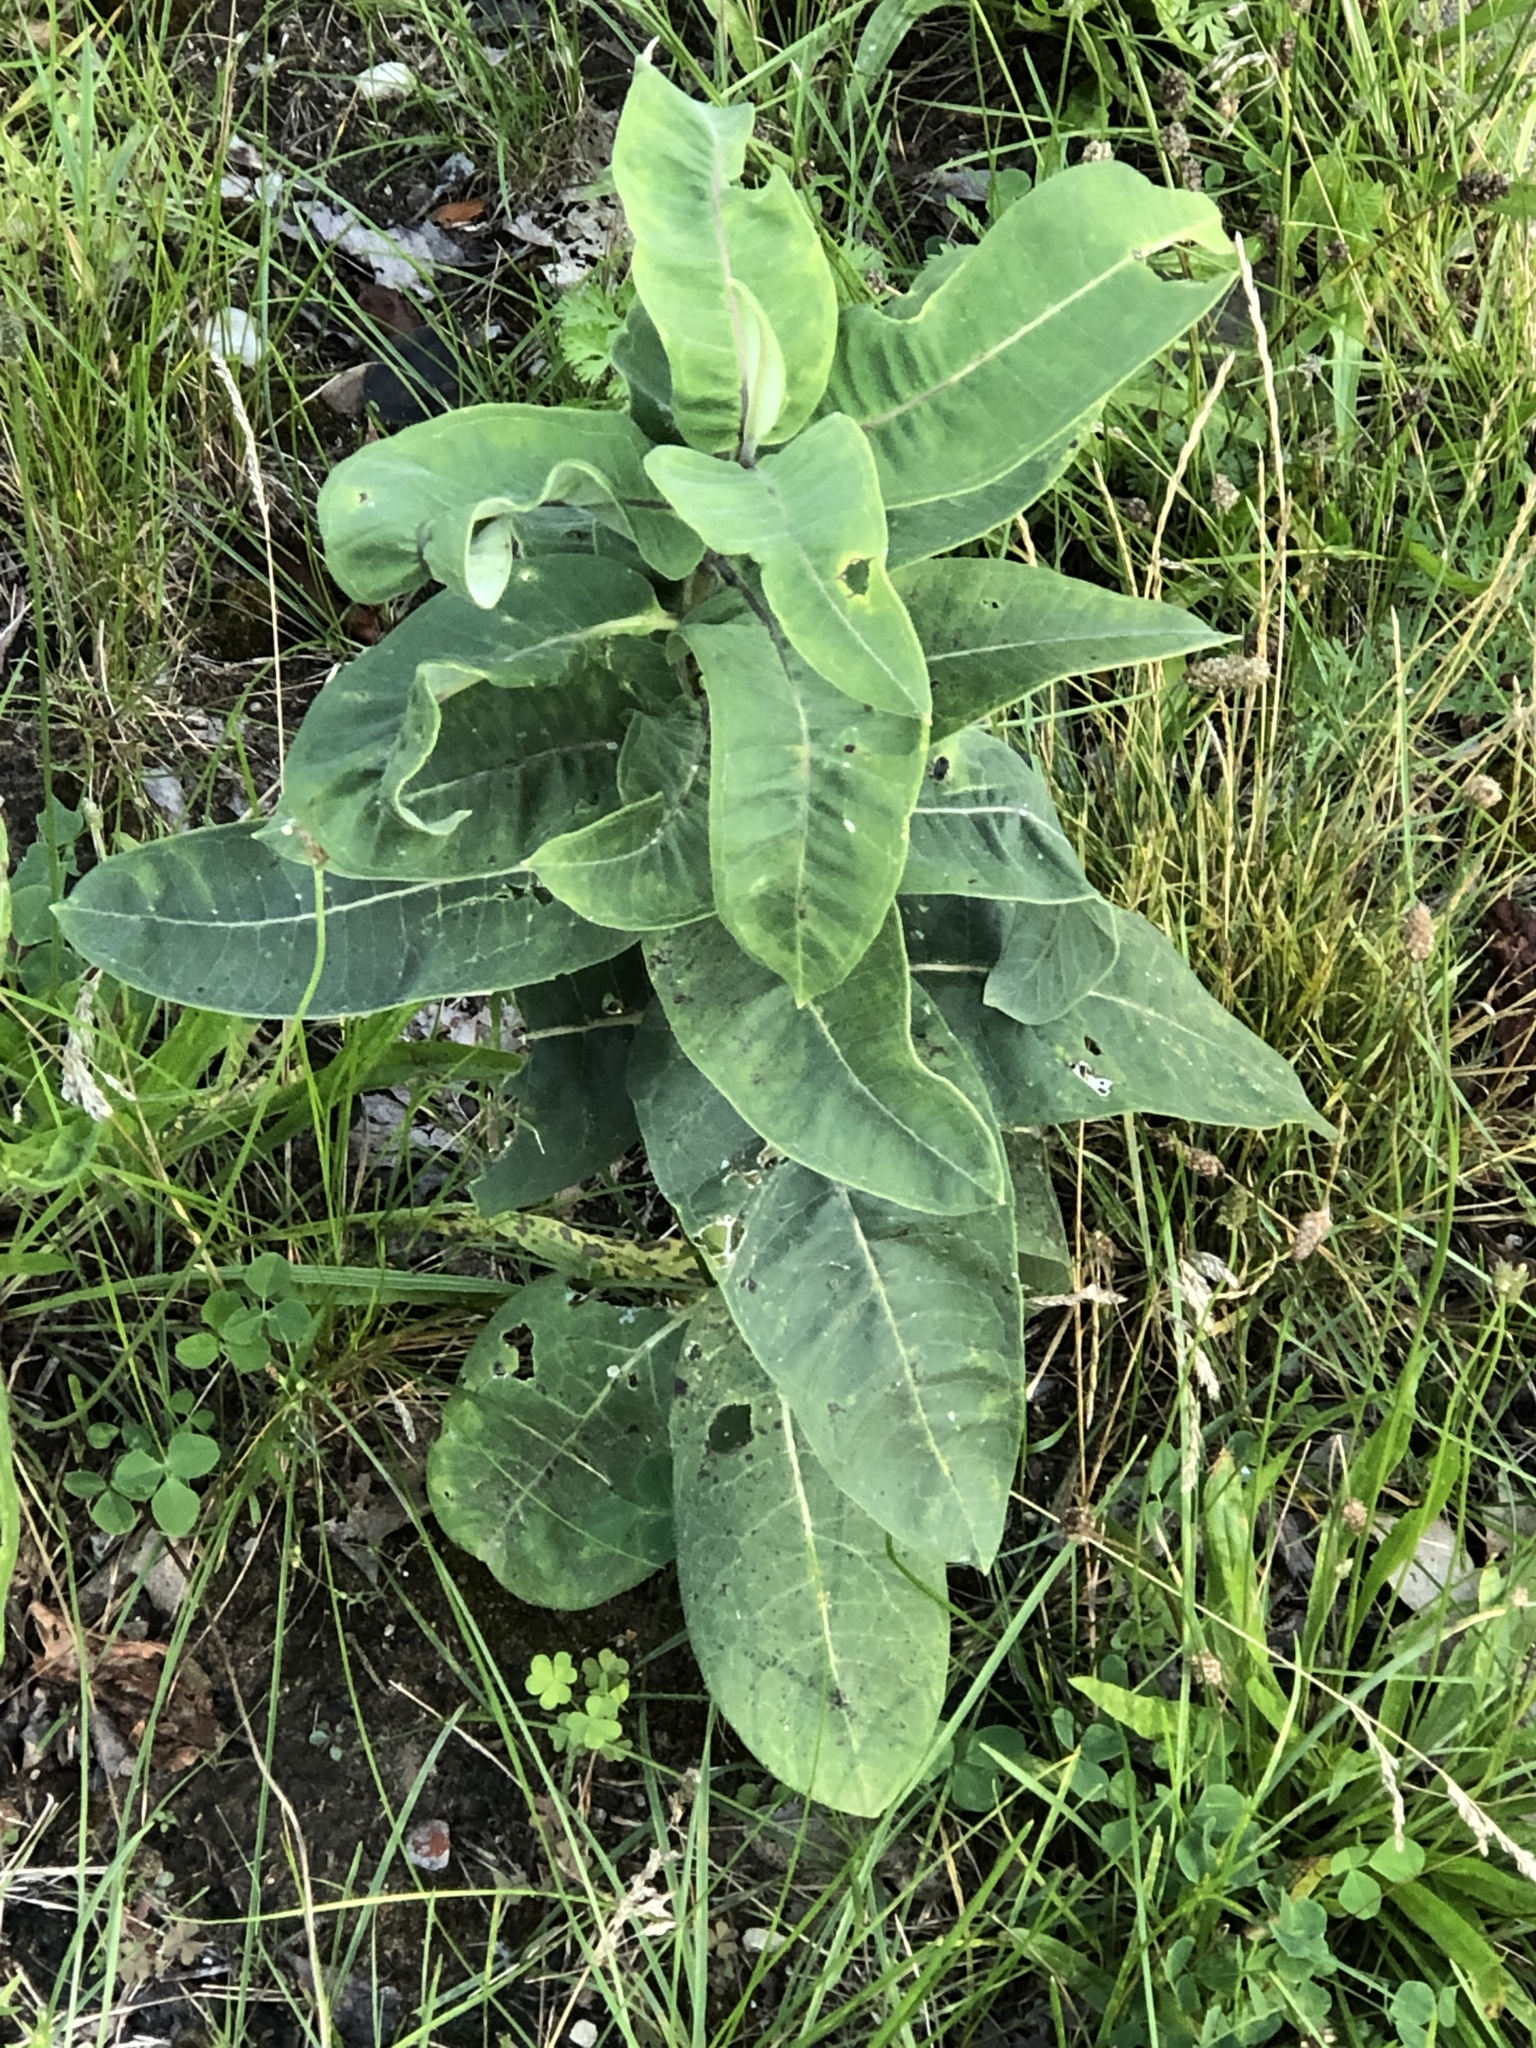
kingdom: Plantae
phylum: Tracheophyta
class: Magnoliopsida
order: Gentianales
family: Apocynaceae
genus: Asclepias
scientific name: Asclepias syriaca
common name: Common milkweed
